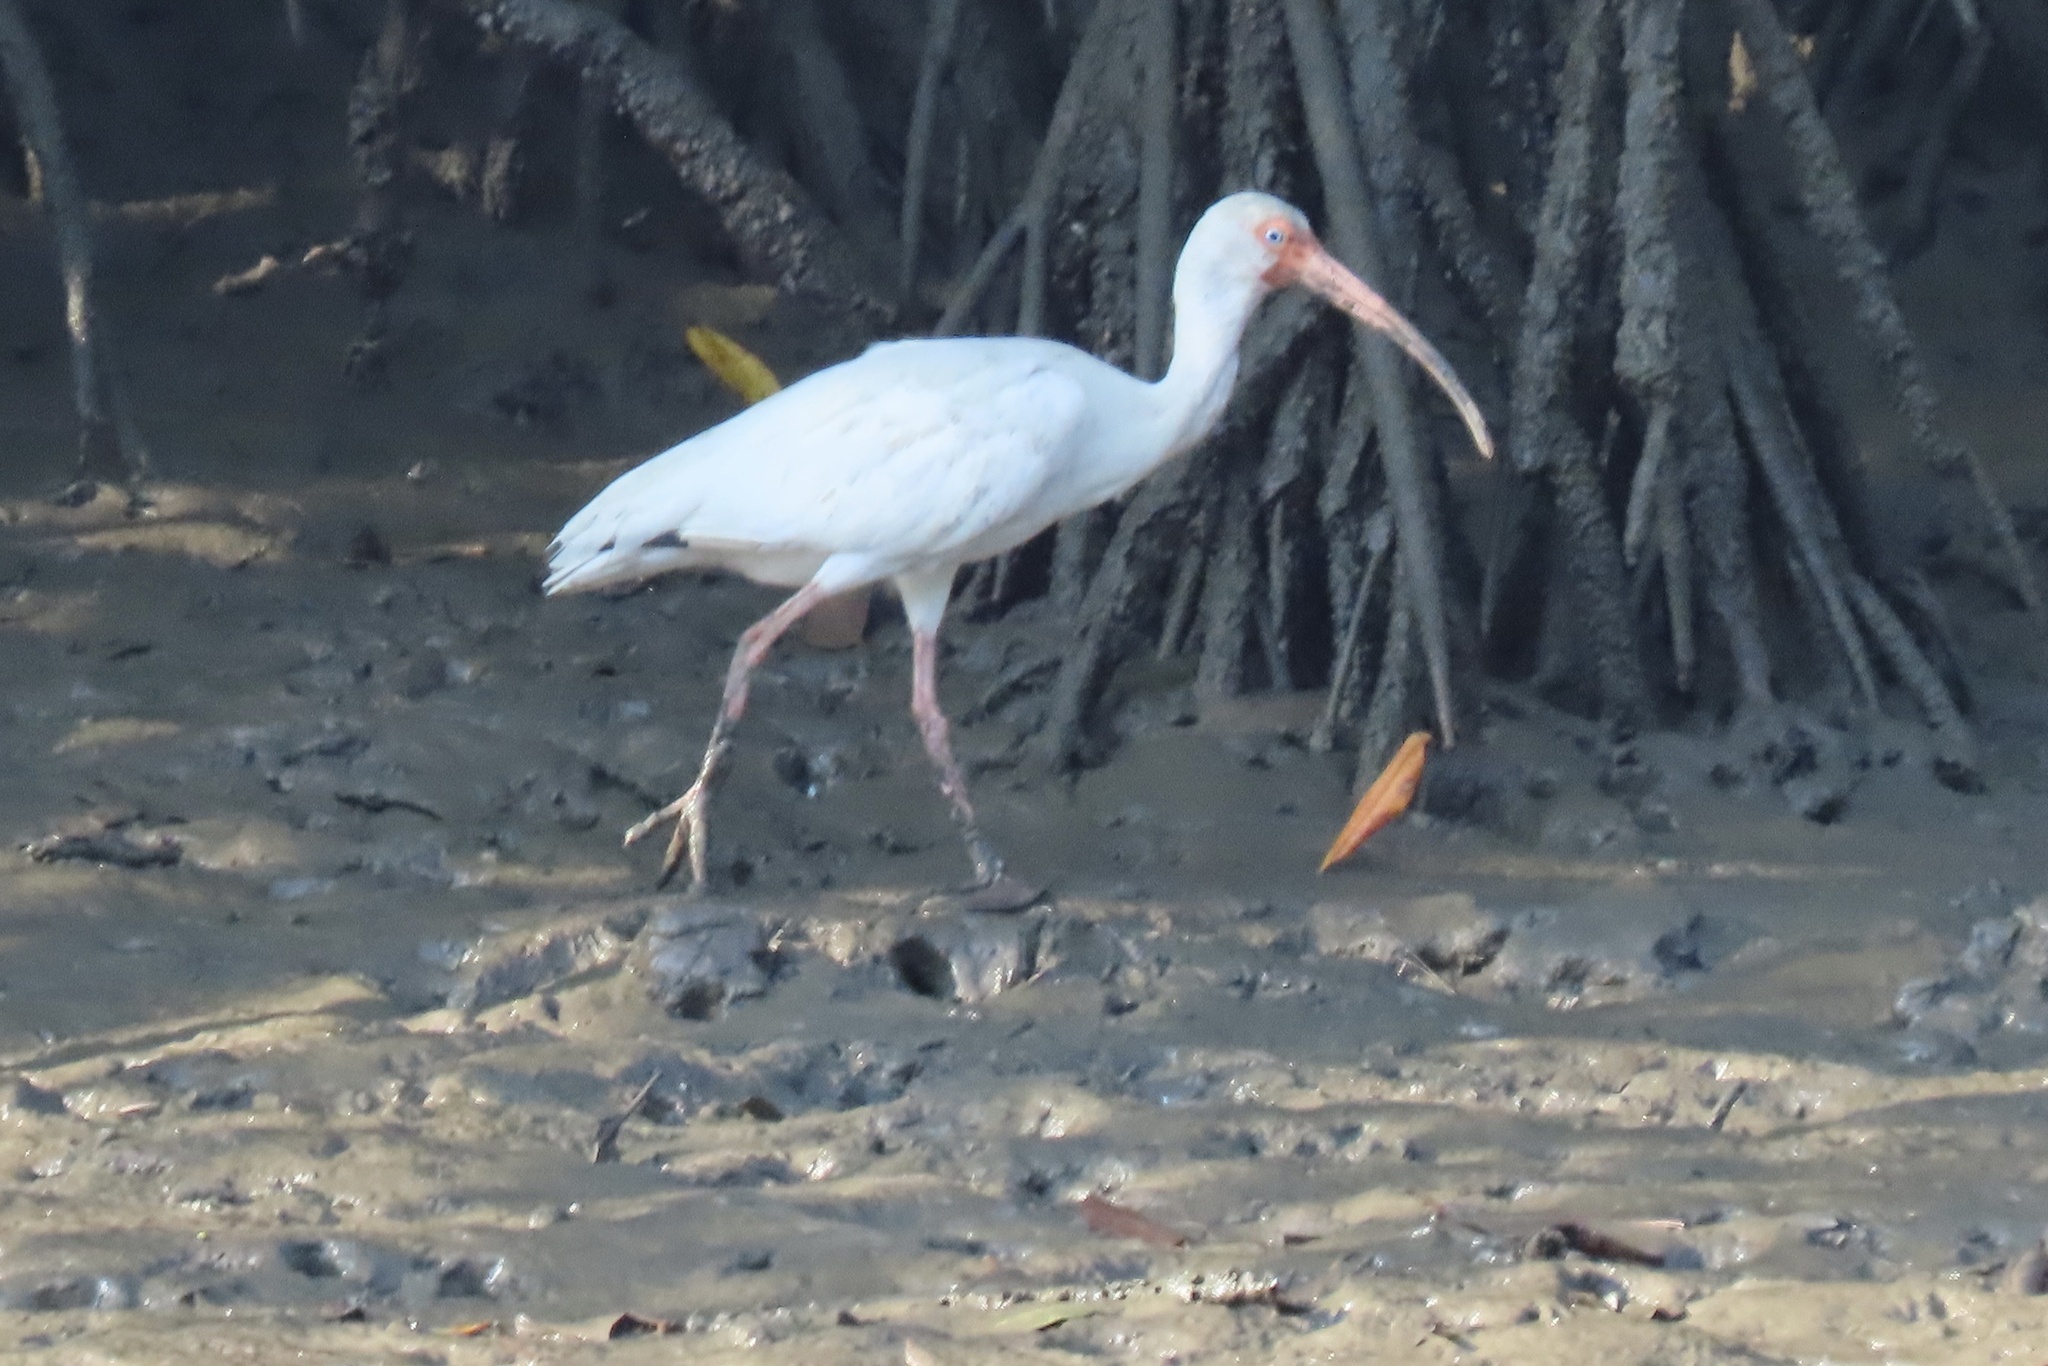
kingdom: Animalia
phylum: Chordata
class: Aves
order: Pelecaniformes
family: Threskiornithidae
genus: Eudocimus
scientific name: Eudocimus albus
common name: White ibis
